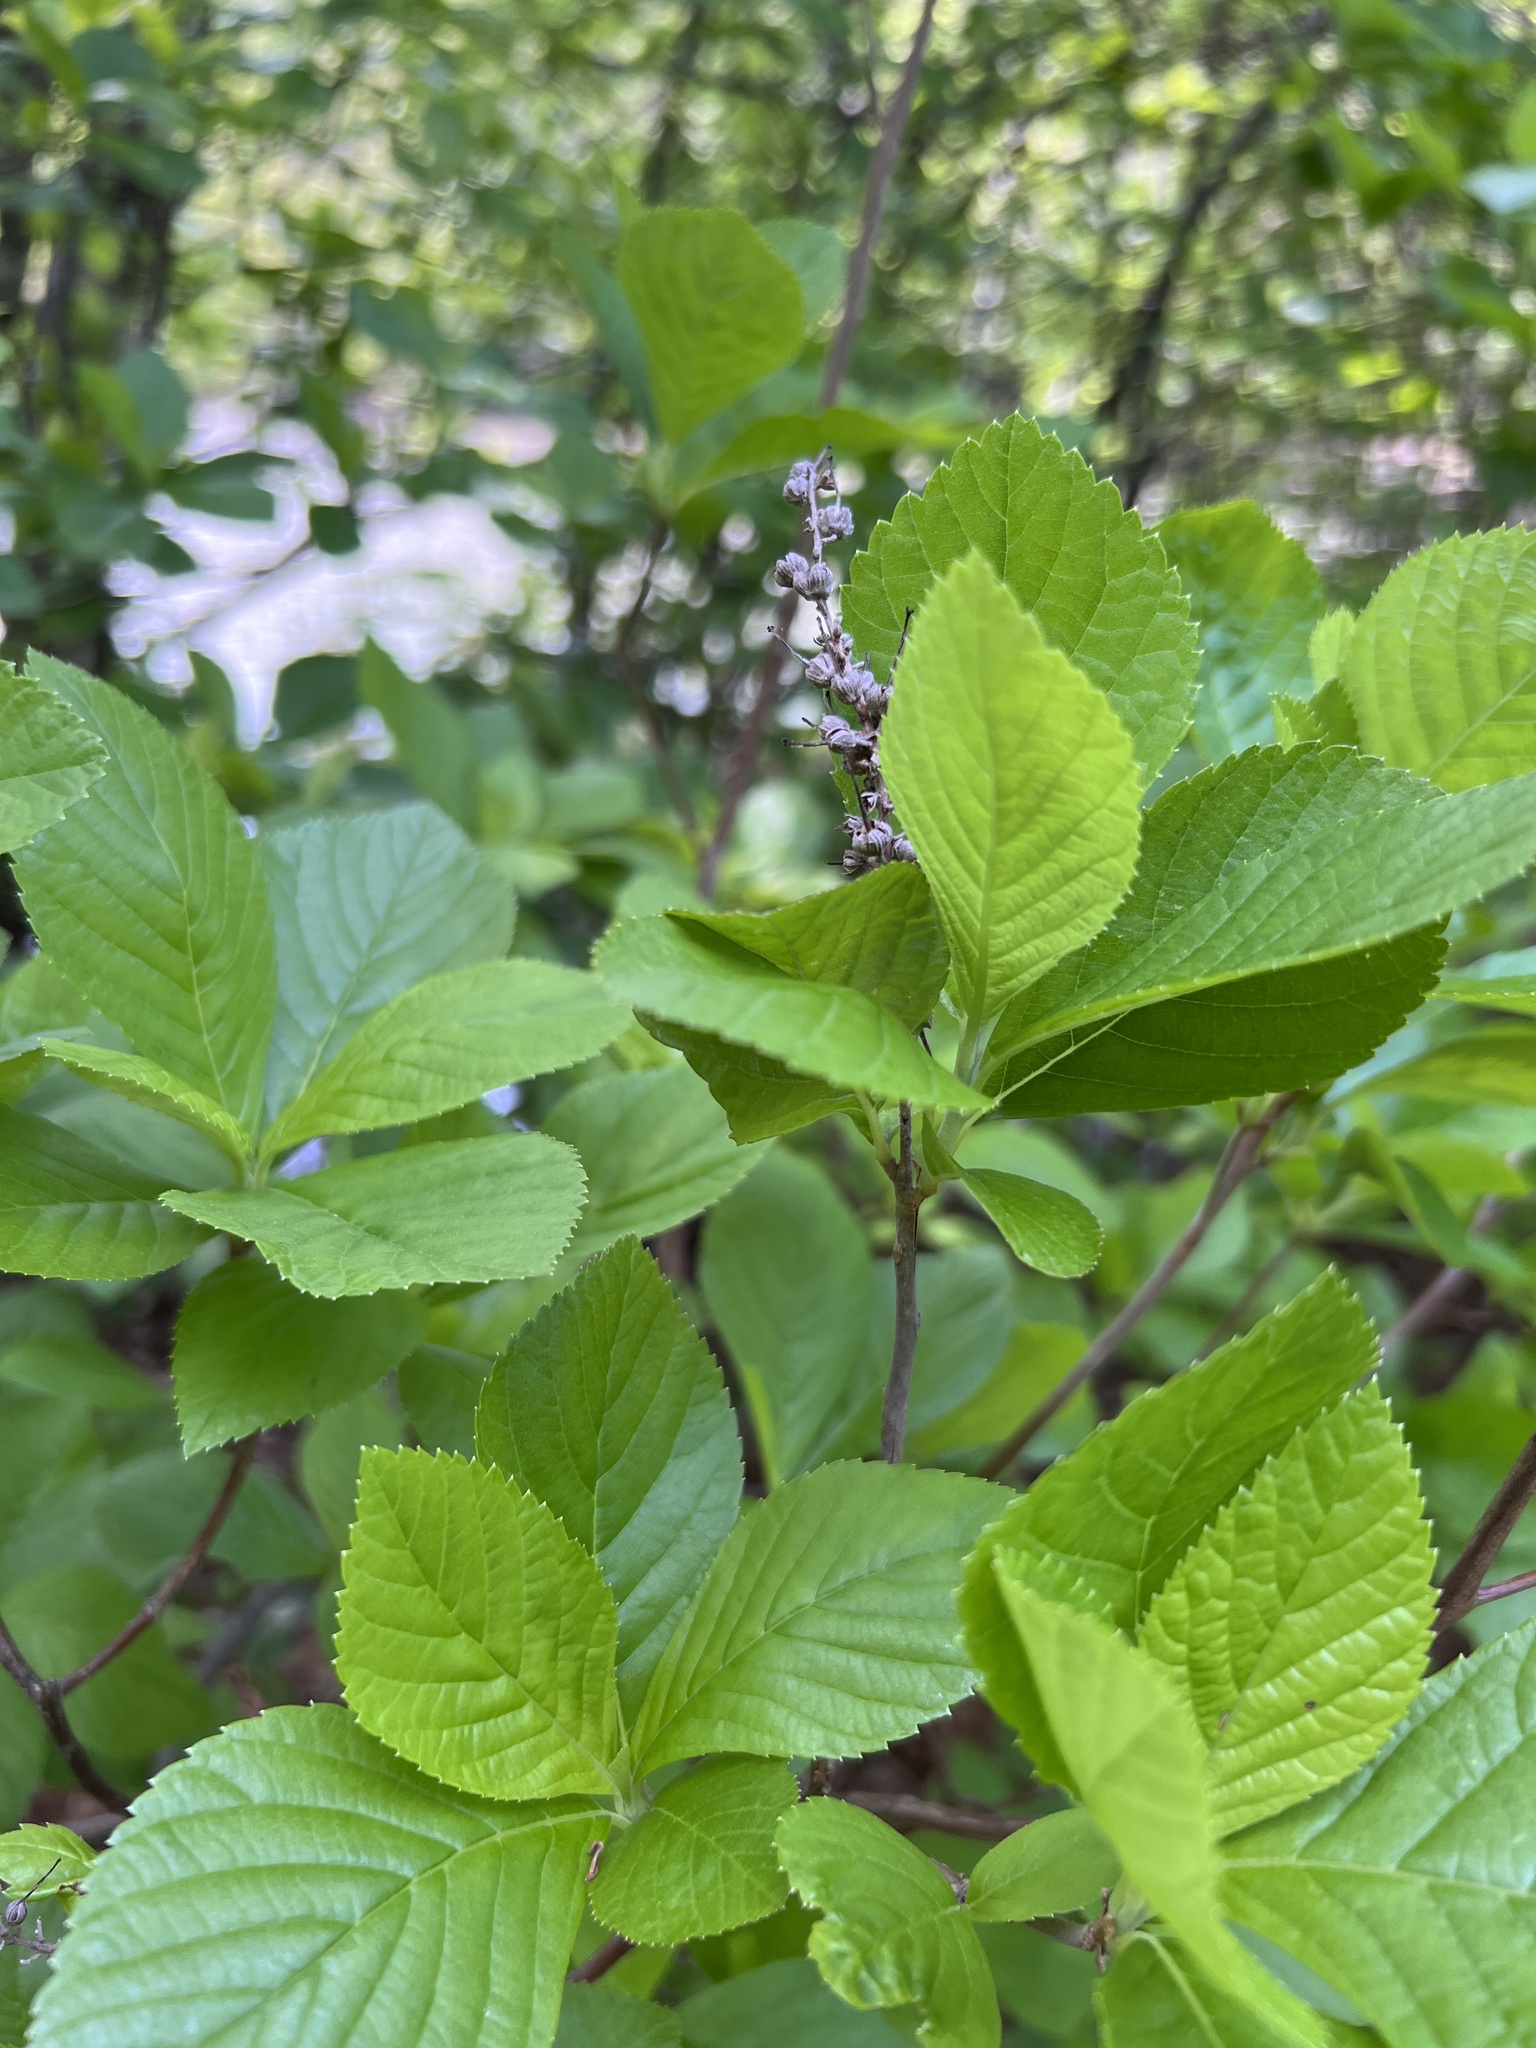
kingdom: Plantae
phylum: Tracheophyta
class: Magnoliopsida
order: Ericales
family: Clethraceae
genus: Clethra
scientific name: Clethra alnifolia
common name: Sweet pepperbush
